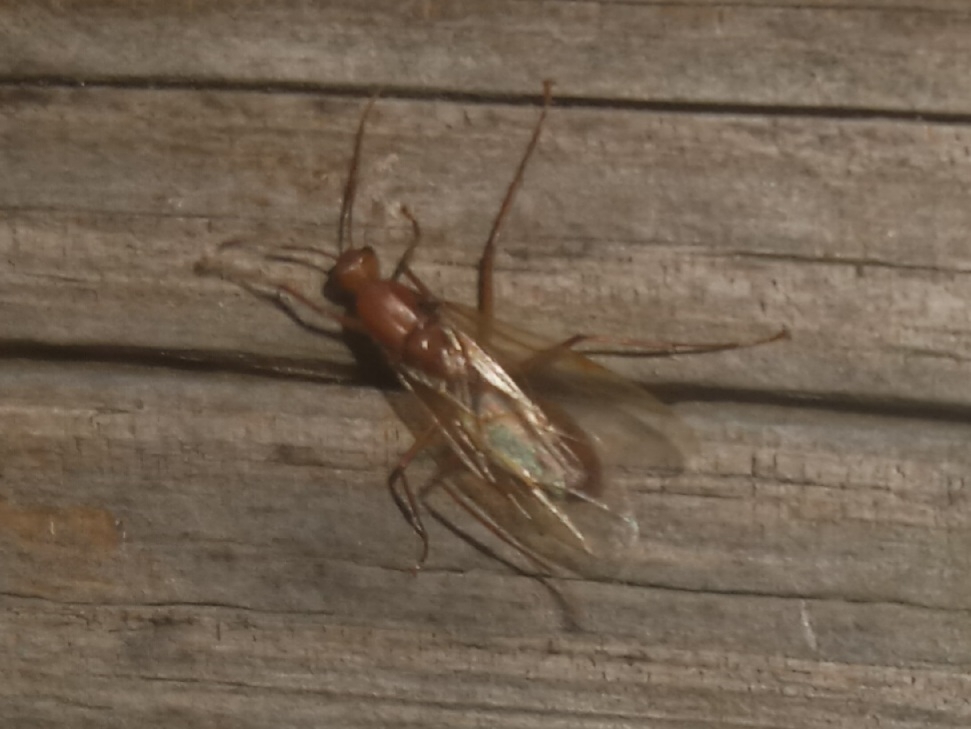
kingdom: Animalia
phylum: Arthropoda
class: Insecta
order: Hymenoptera
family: Formicidae
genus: Camponotus
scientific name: Camponotus castaneus
